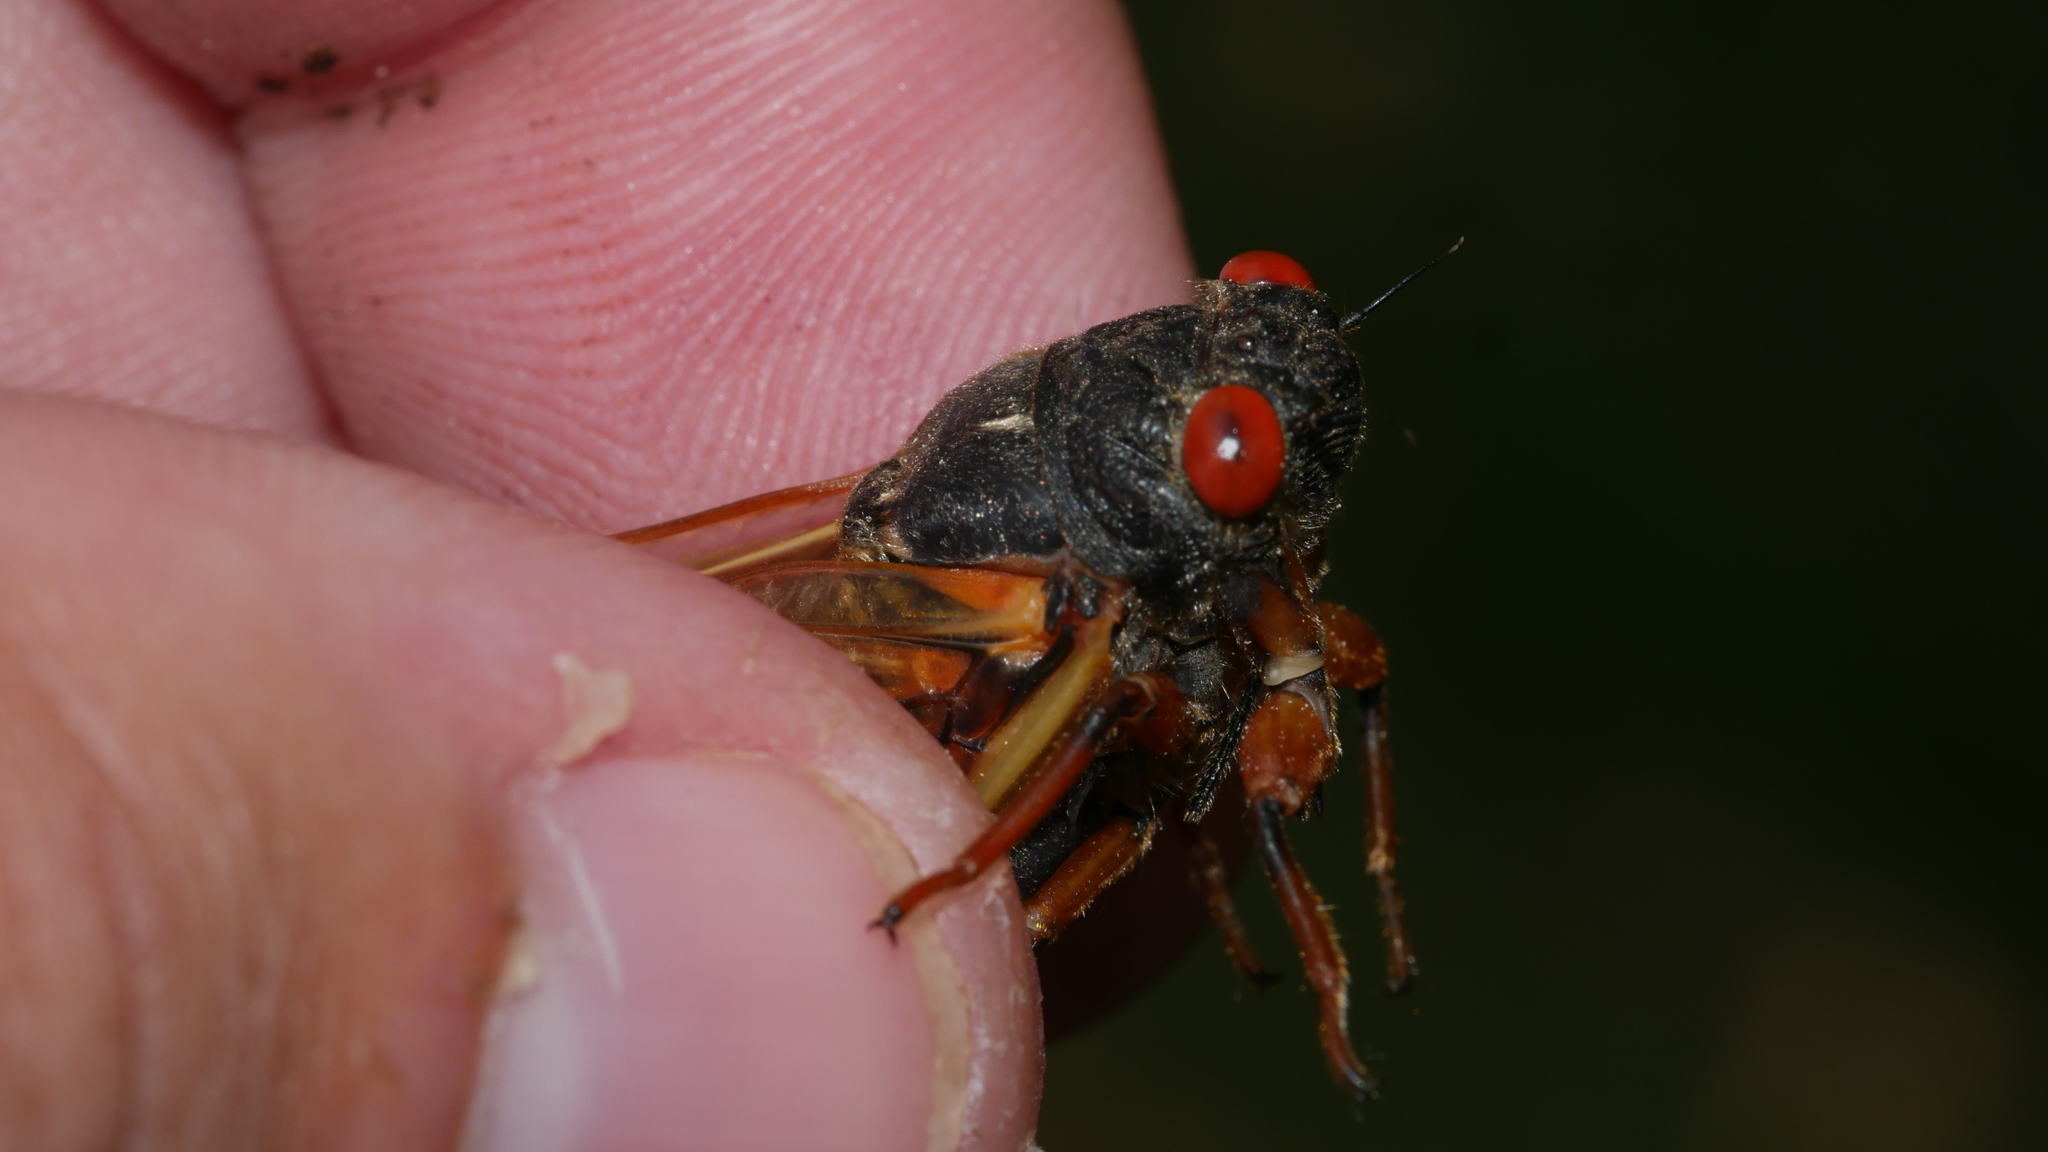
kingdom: Animalia
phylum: Arthropoda
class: Insecta
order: Hemiptera
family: Cicadidae
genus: Magicicada
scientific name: Magicicada septendecula
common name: Decula periodical cicada
